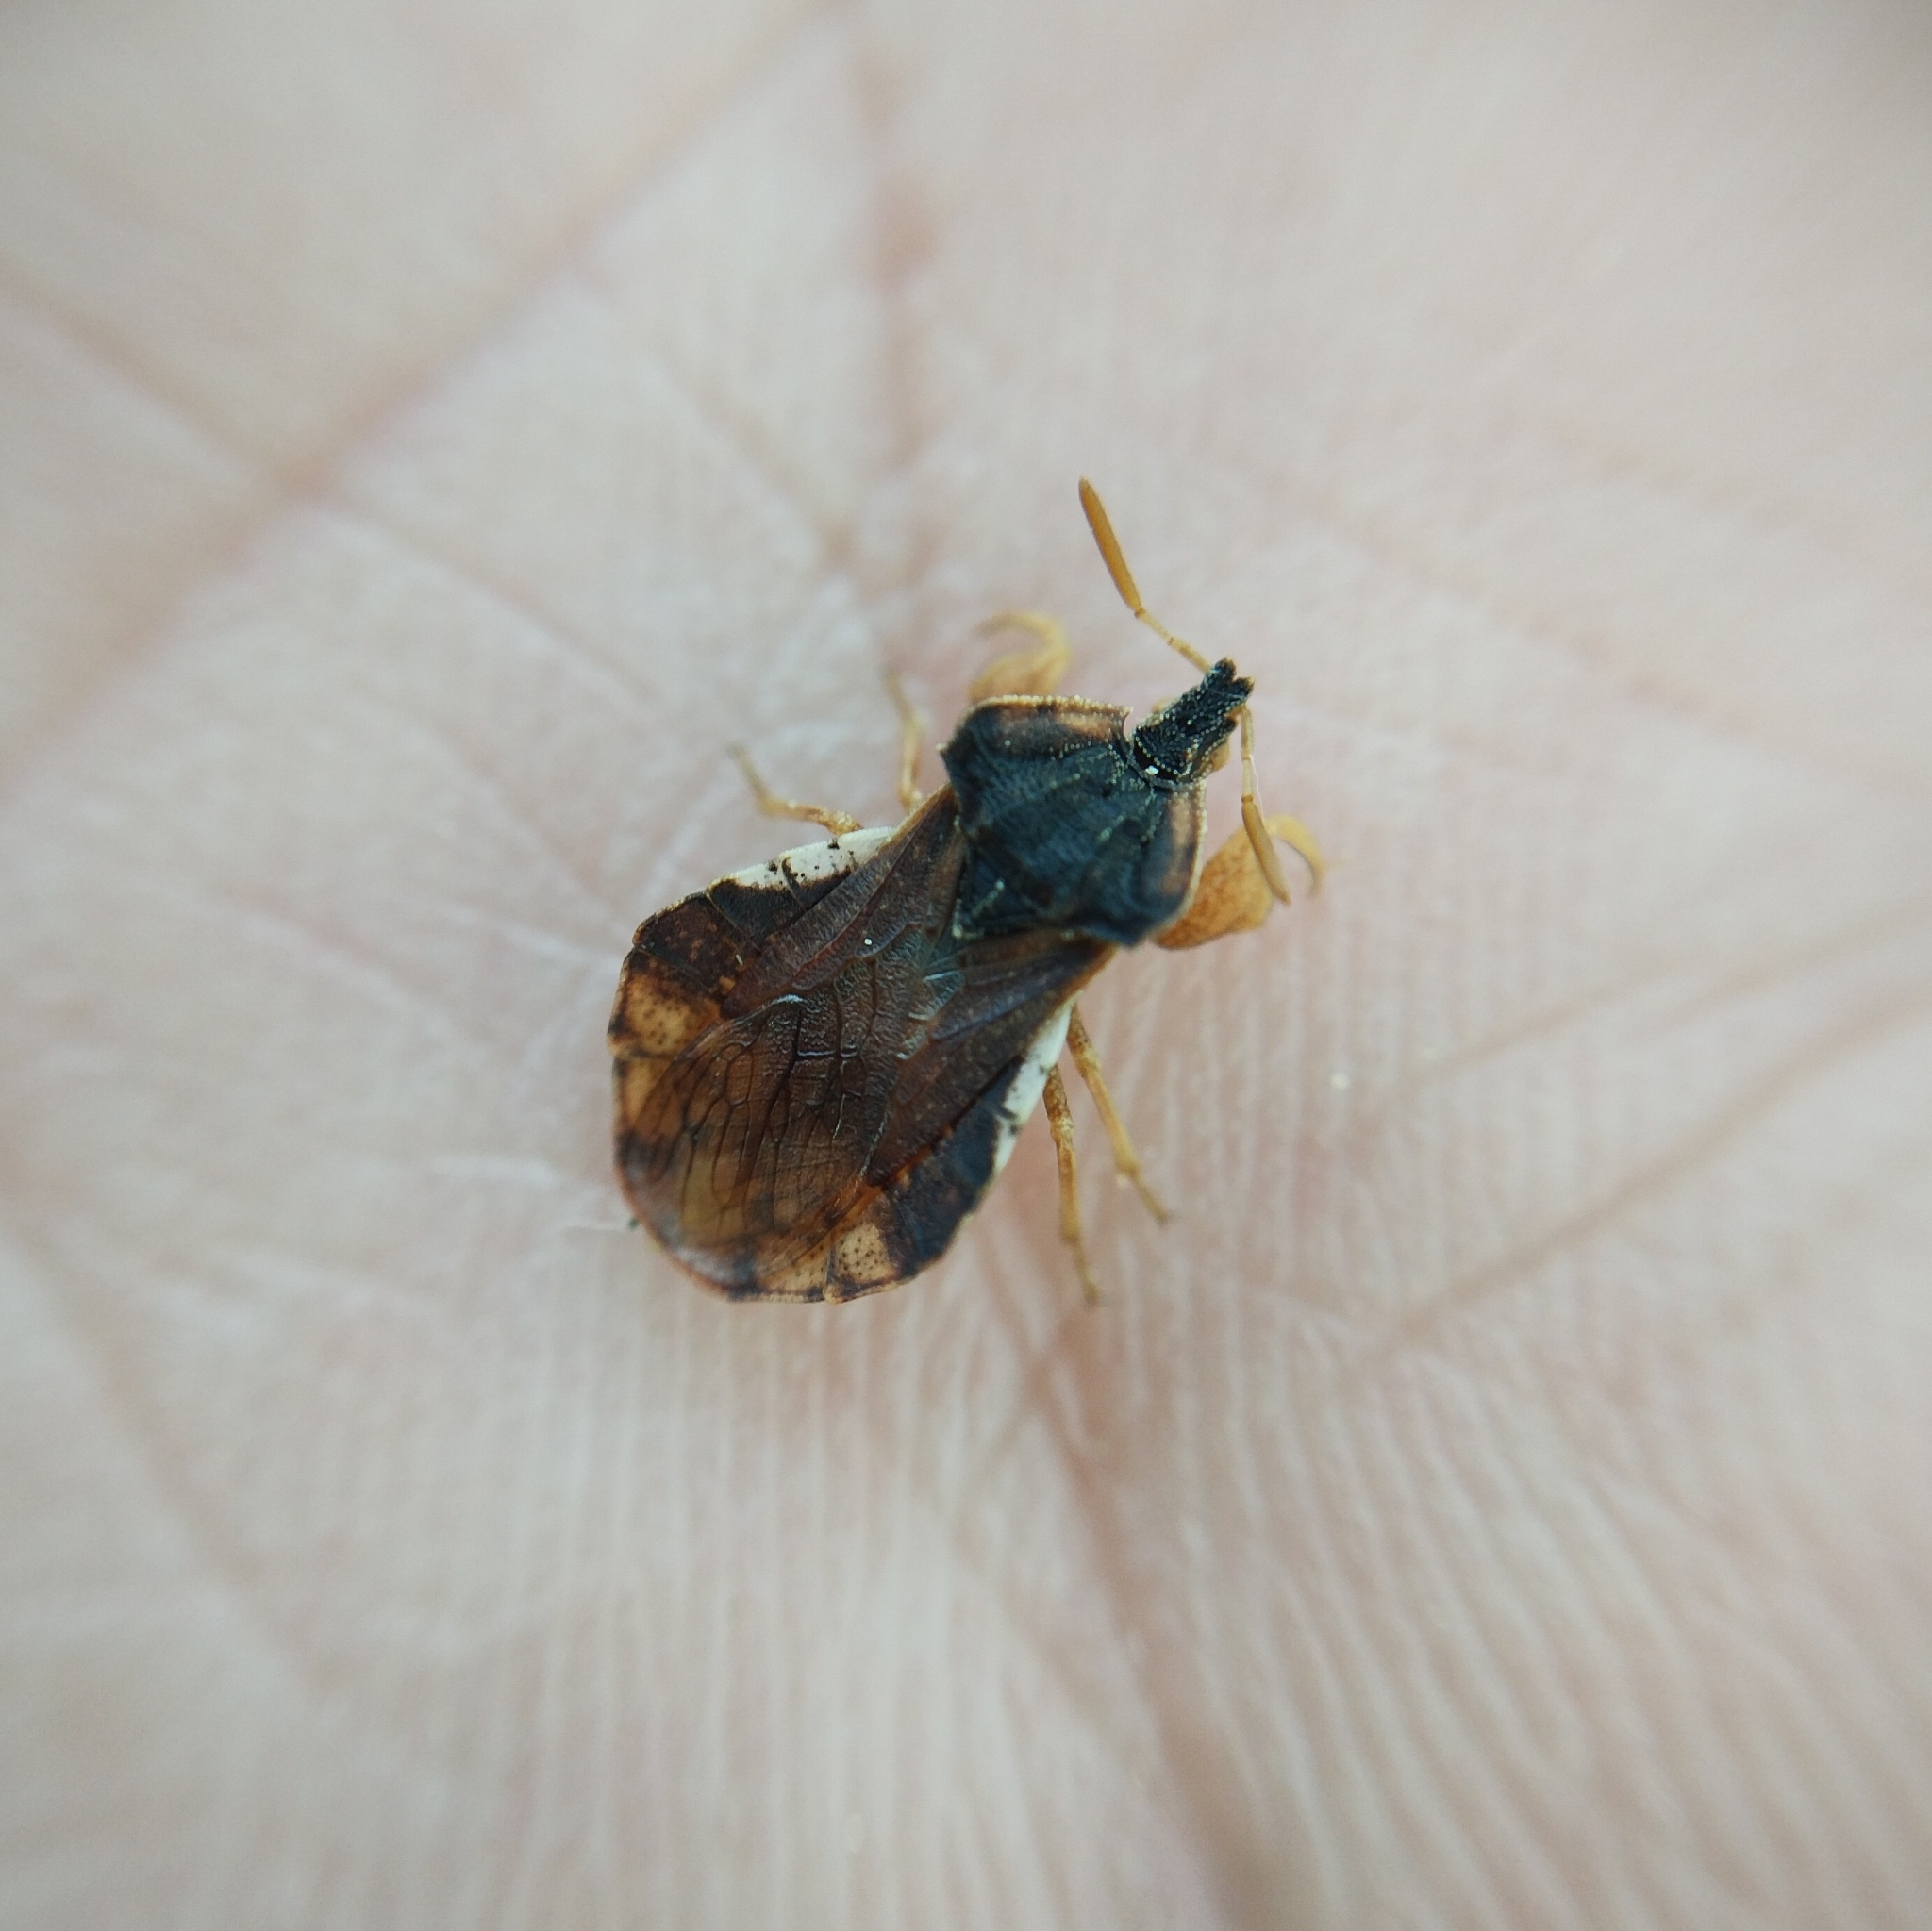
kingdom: Animalia
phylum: Arthropoda
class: Insecta
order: Hemiptera
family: Reduviidae
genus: Phymata
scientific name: Phymata crassipes
